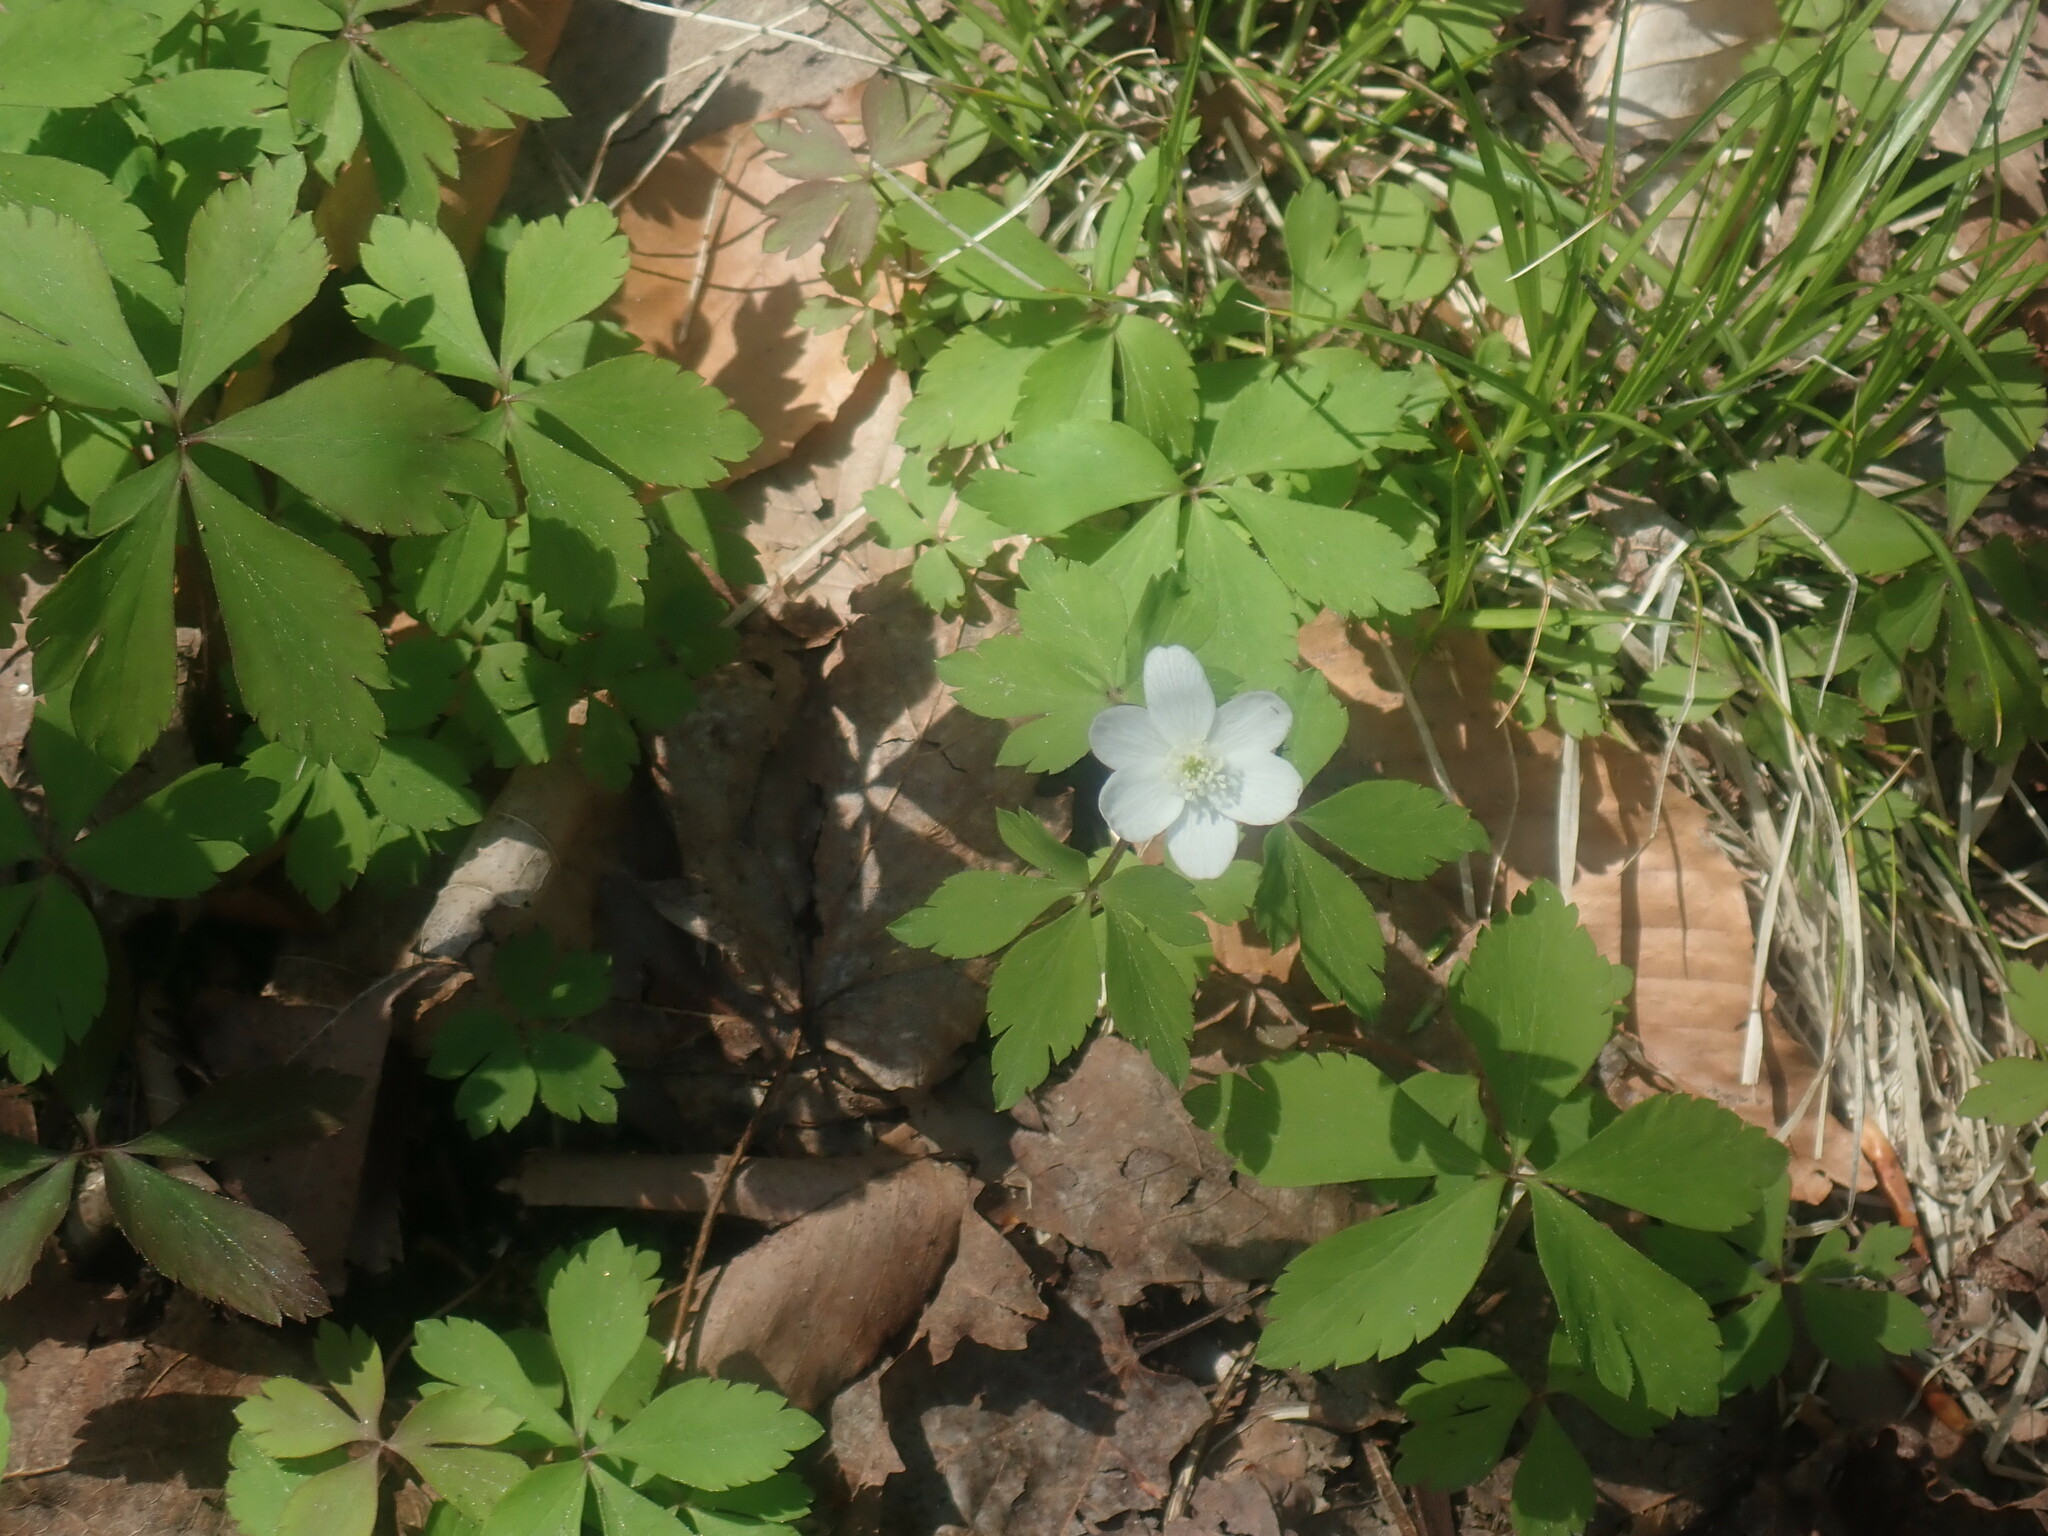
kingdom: Plantae
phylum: Tracheophyta
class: Magnoliopsida
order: Ranunculales
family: Ranunculaceae
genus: Anemone
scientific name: Anemone quinquefolia
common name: Wood anemone
